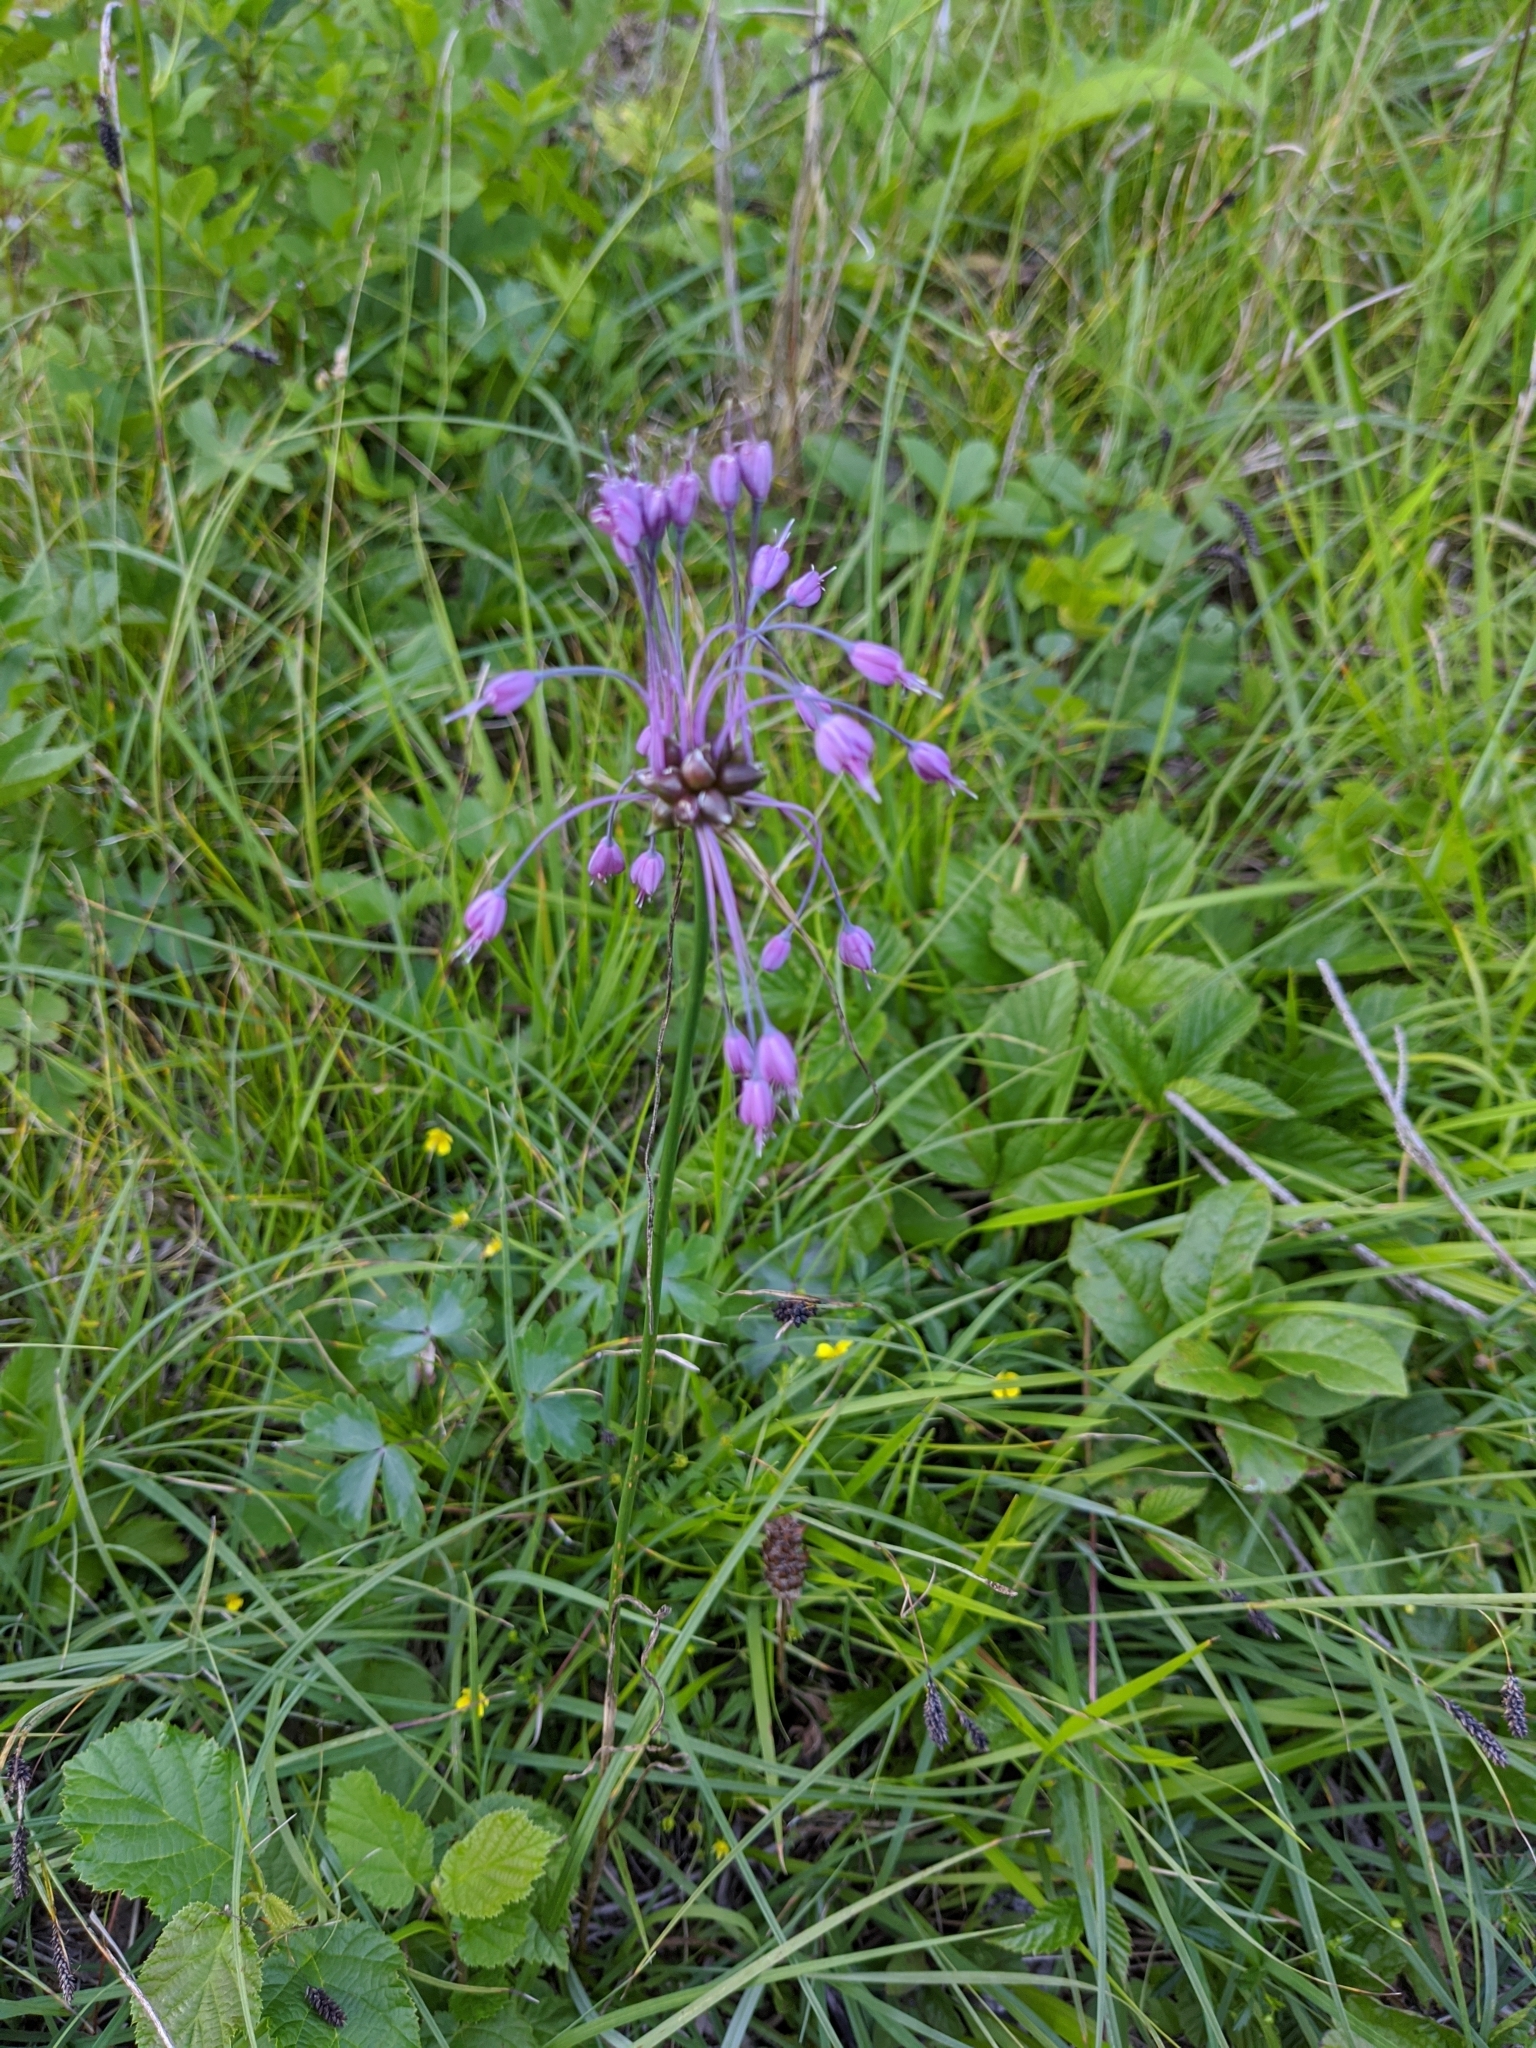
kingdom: Plantae
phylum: Tracheophyta
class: Liliopsida
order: Asparagales
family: Amaryllidaceae
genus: Allium
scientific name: Allium carinatum
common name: Keeled garlic
